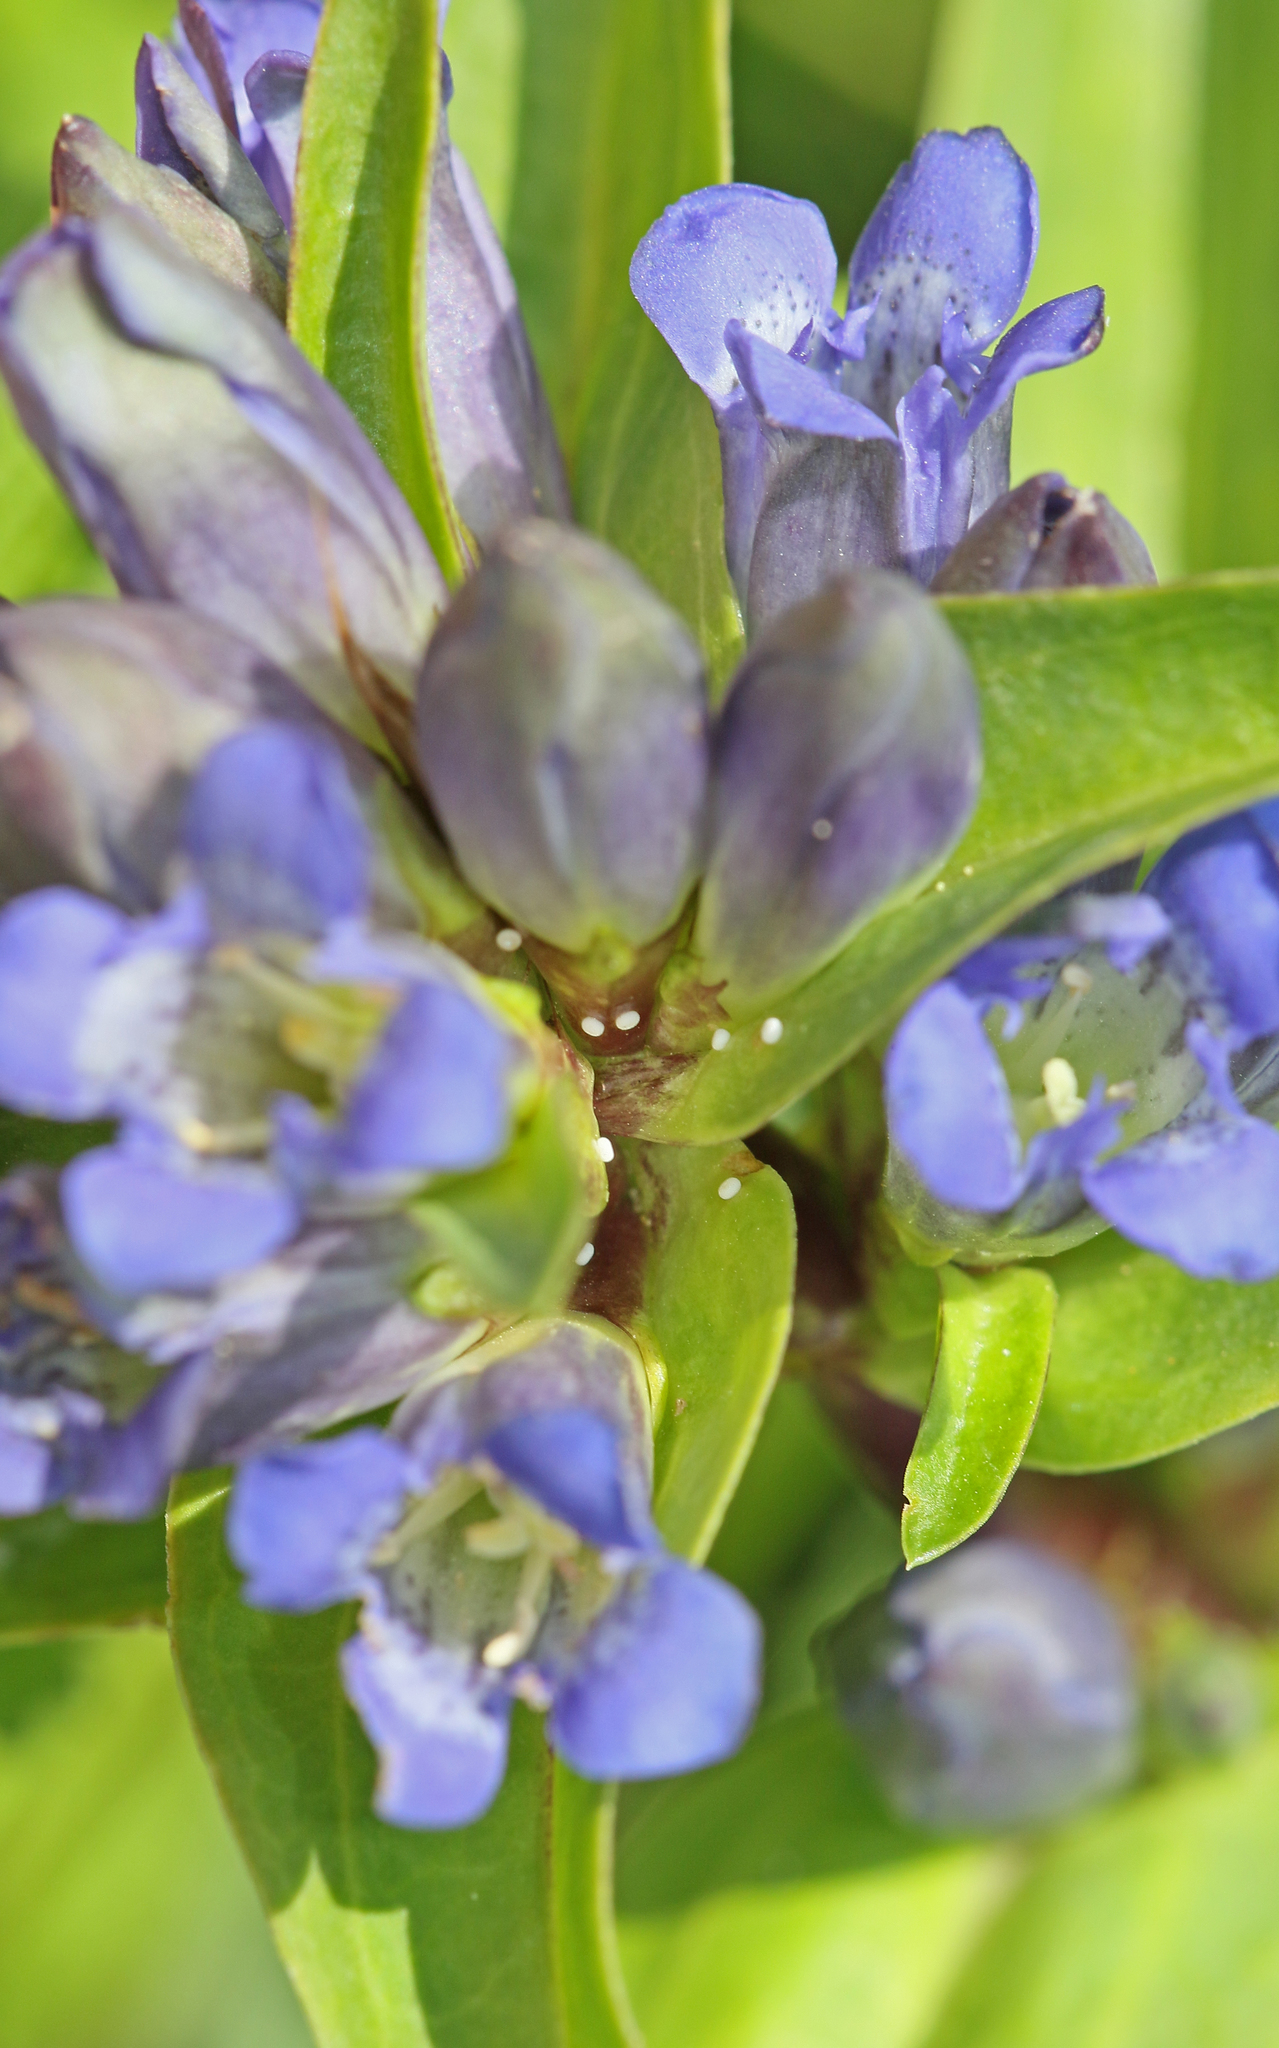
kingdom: Animalia
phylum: Arthropoda
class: Insecta
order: Lepidoptera
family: Lycaenidae
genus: Maculinea
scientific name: Maculinea alcon
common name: Alcon blue
